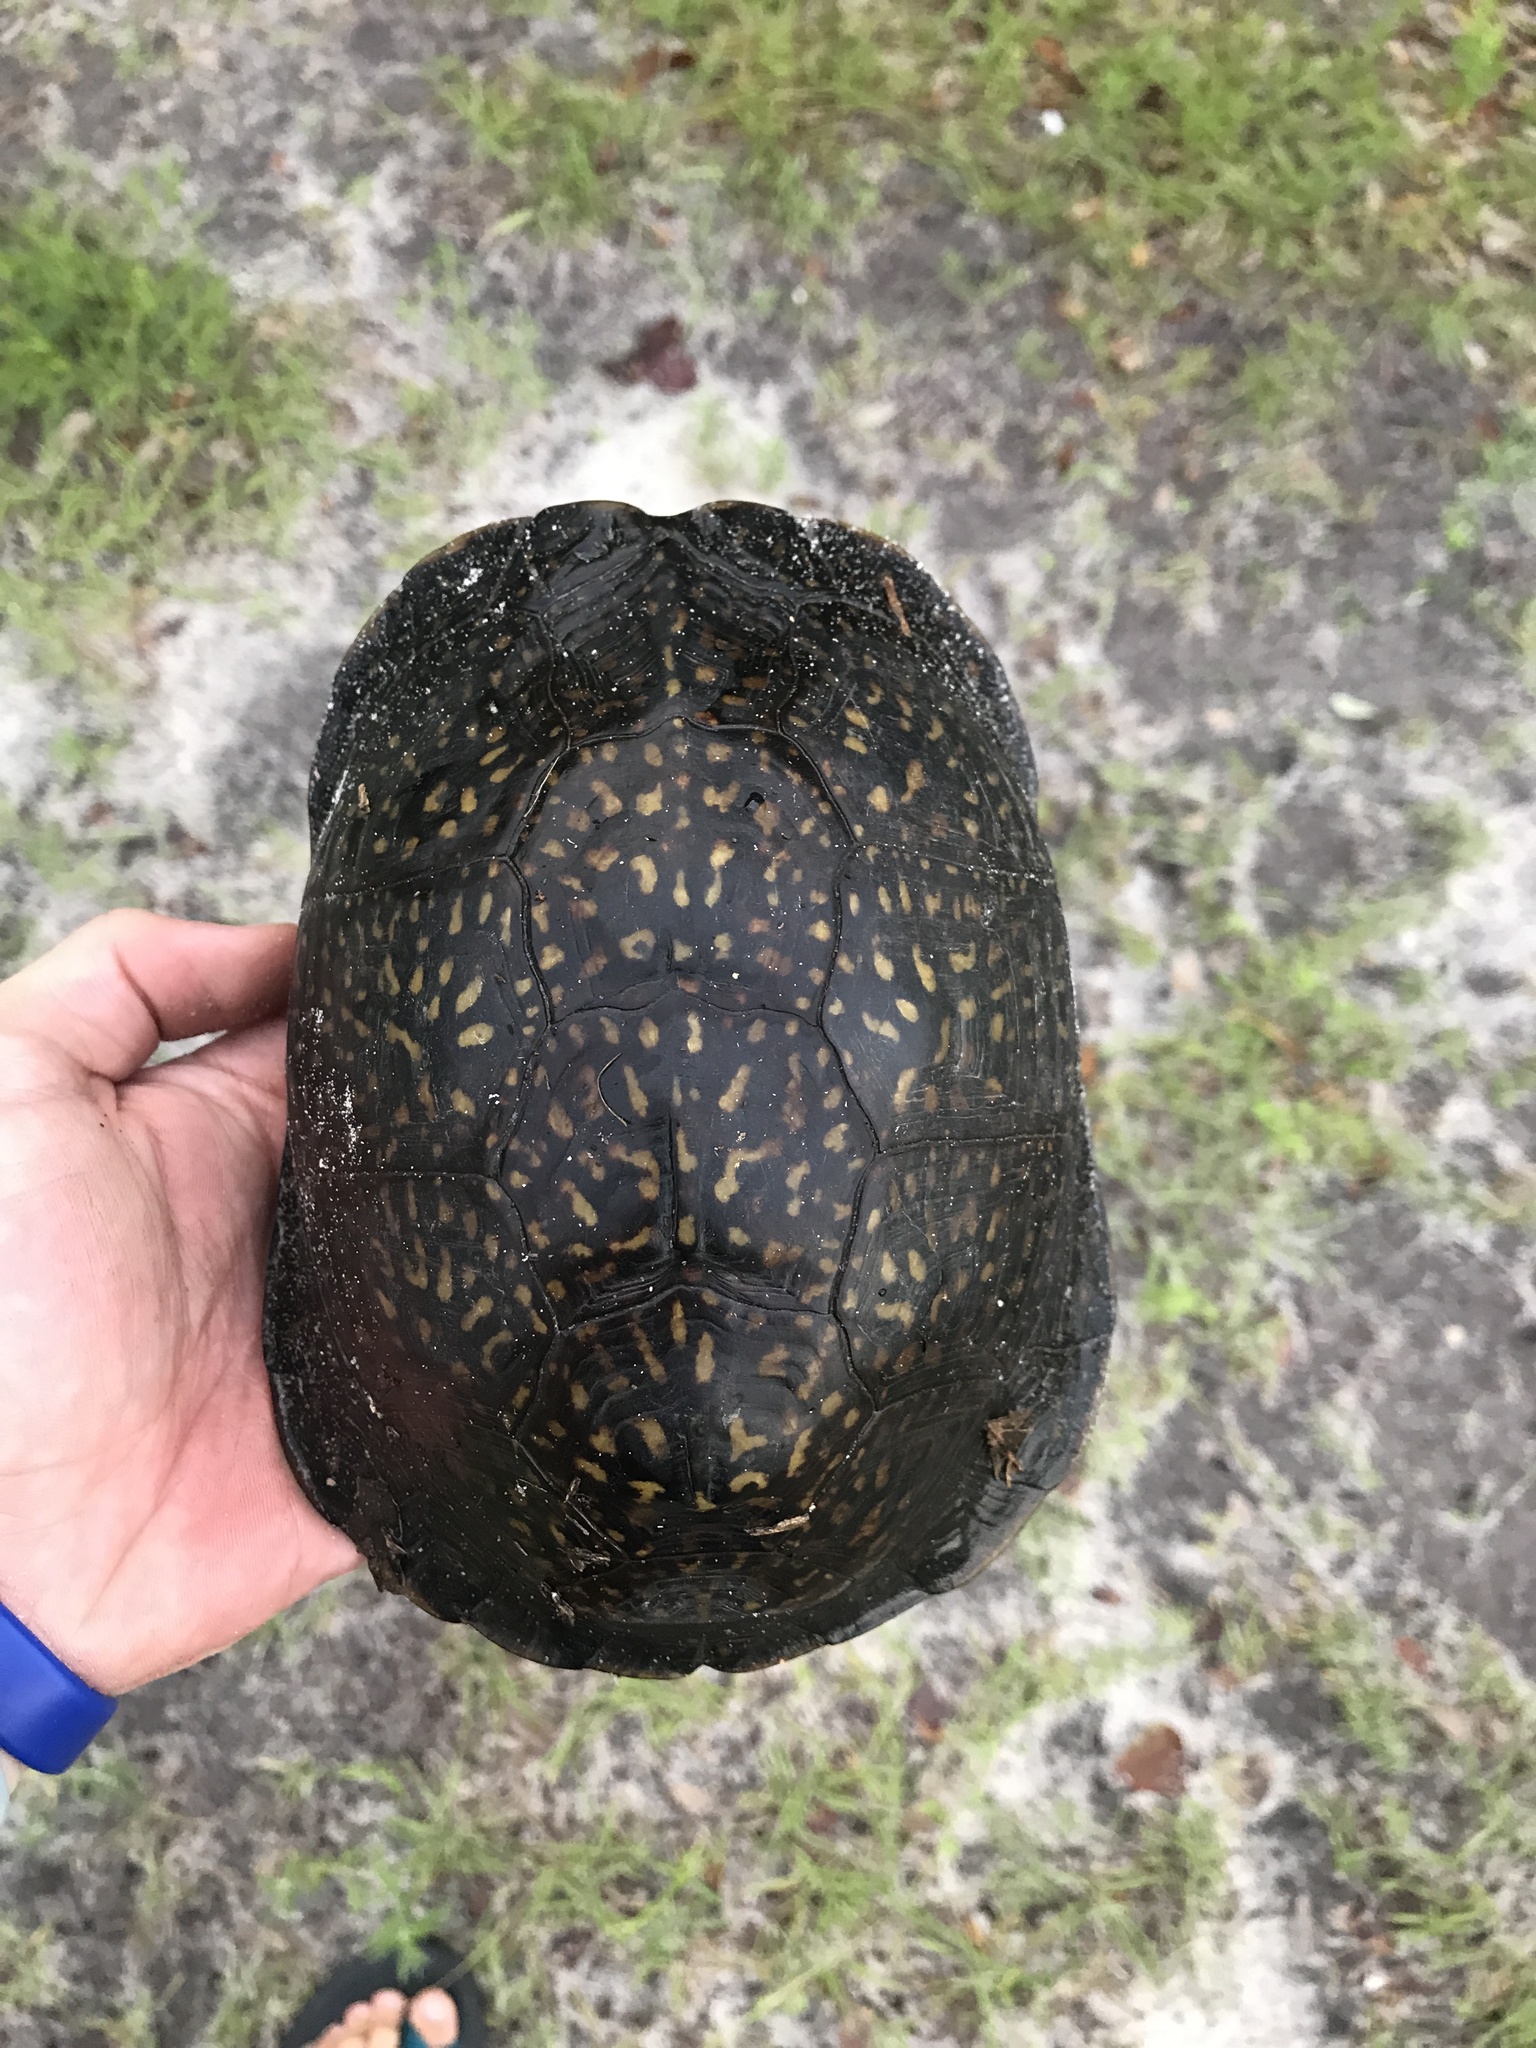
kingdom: Animalia
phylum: Chordata
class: Testudines
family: Emydidae
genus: Terrapene
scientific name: Terrapene carolina
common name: Common box turtle
